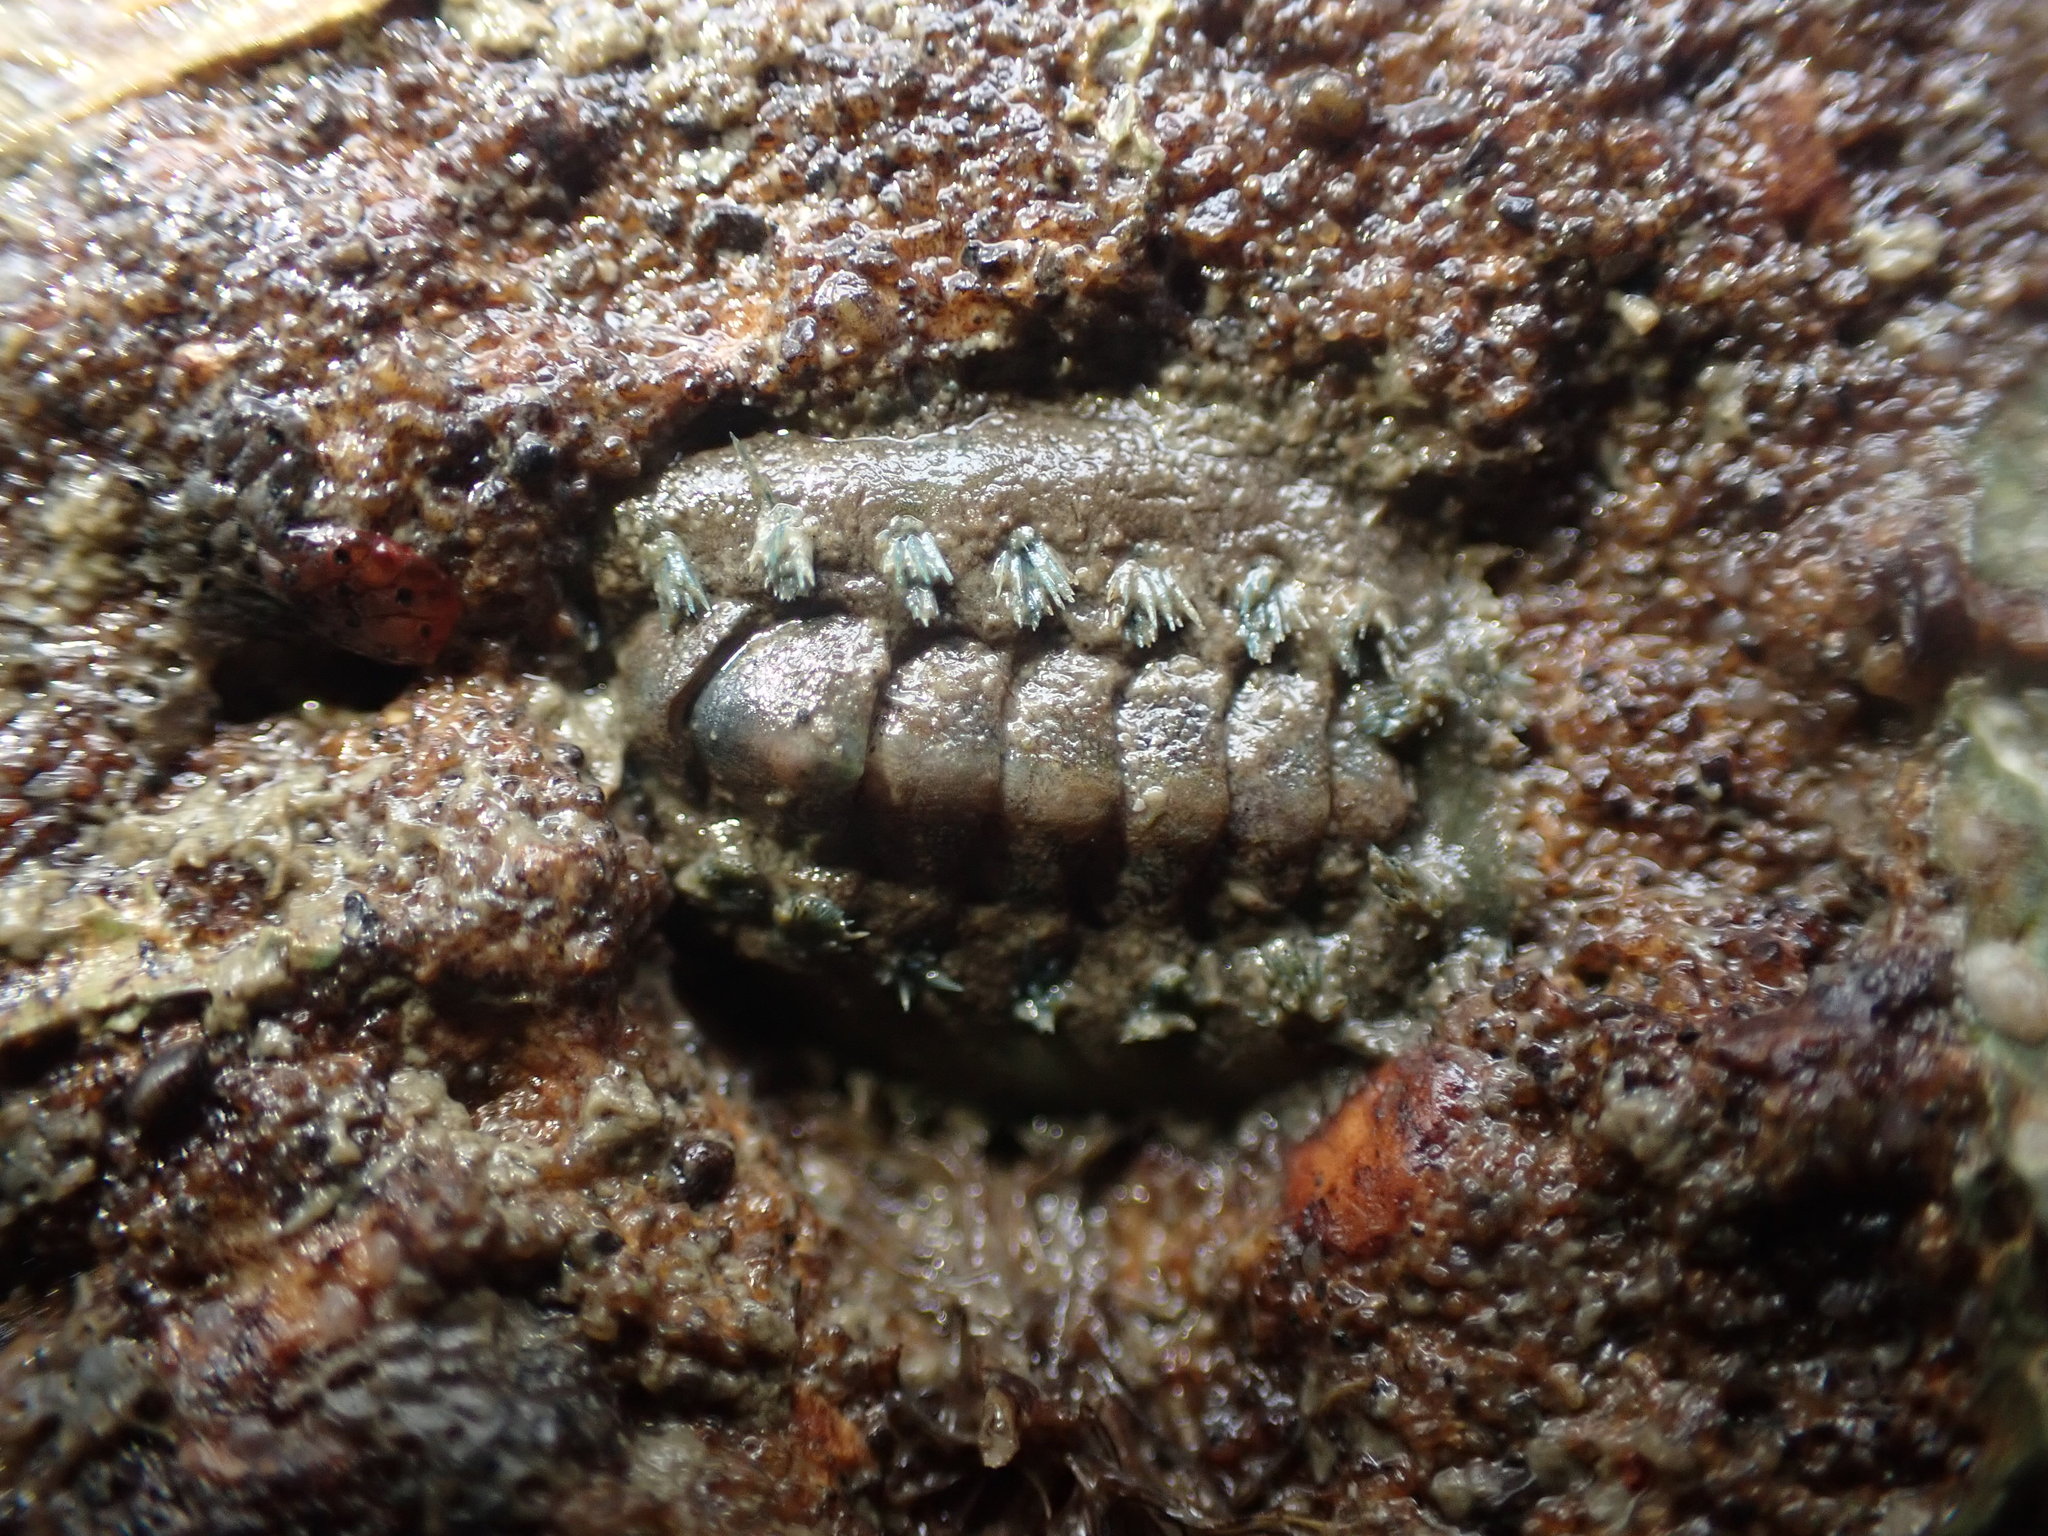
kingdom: Animalia
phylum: Mollusca
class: Polyplacophora
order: Chitonida
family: Acanthochitonidae
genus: Acanthochitona
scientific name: Acanthochitona zelandica
